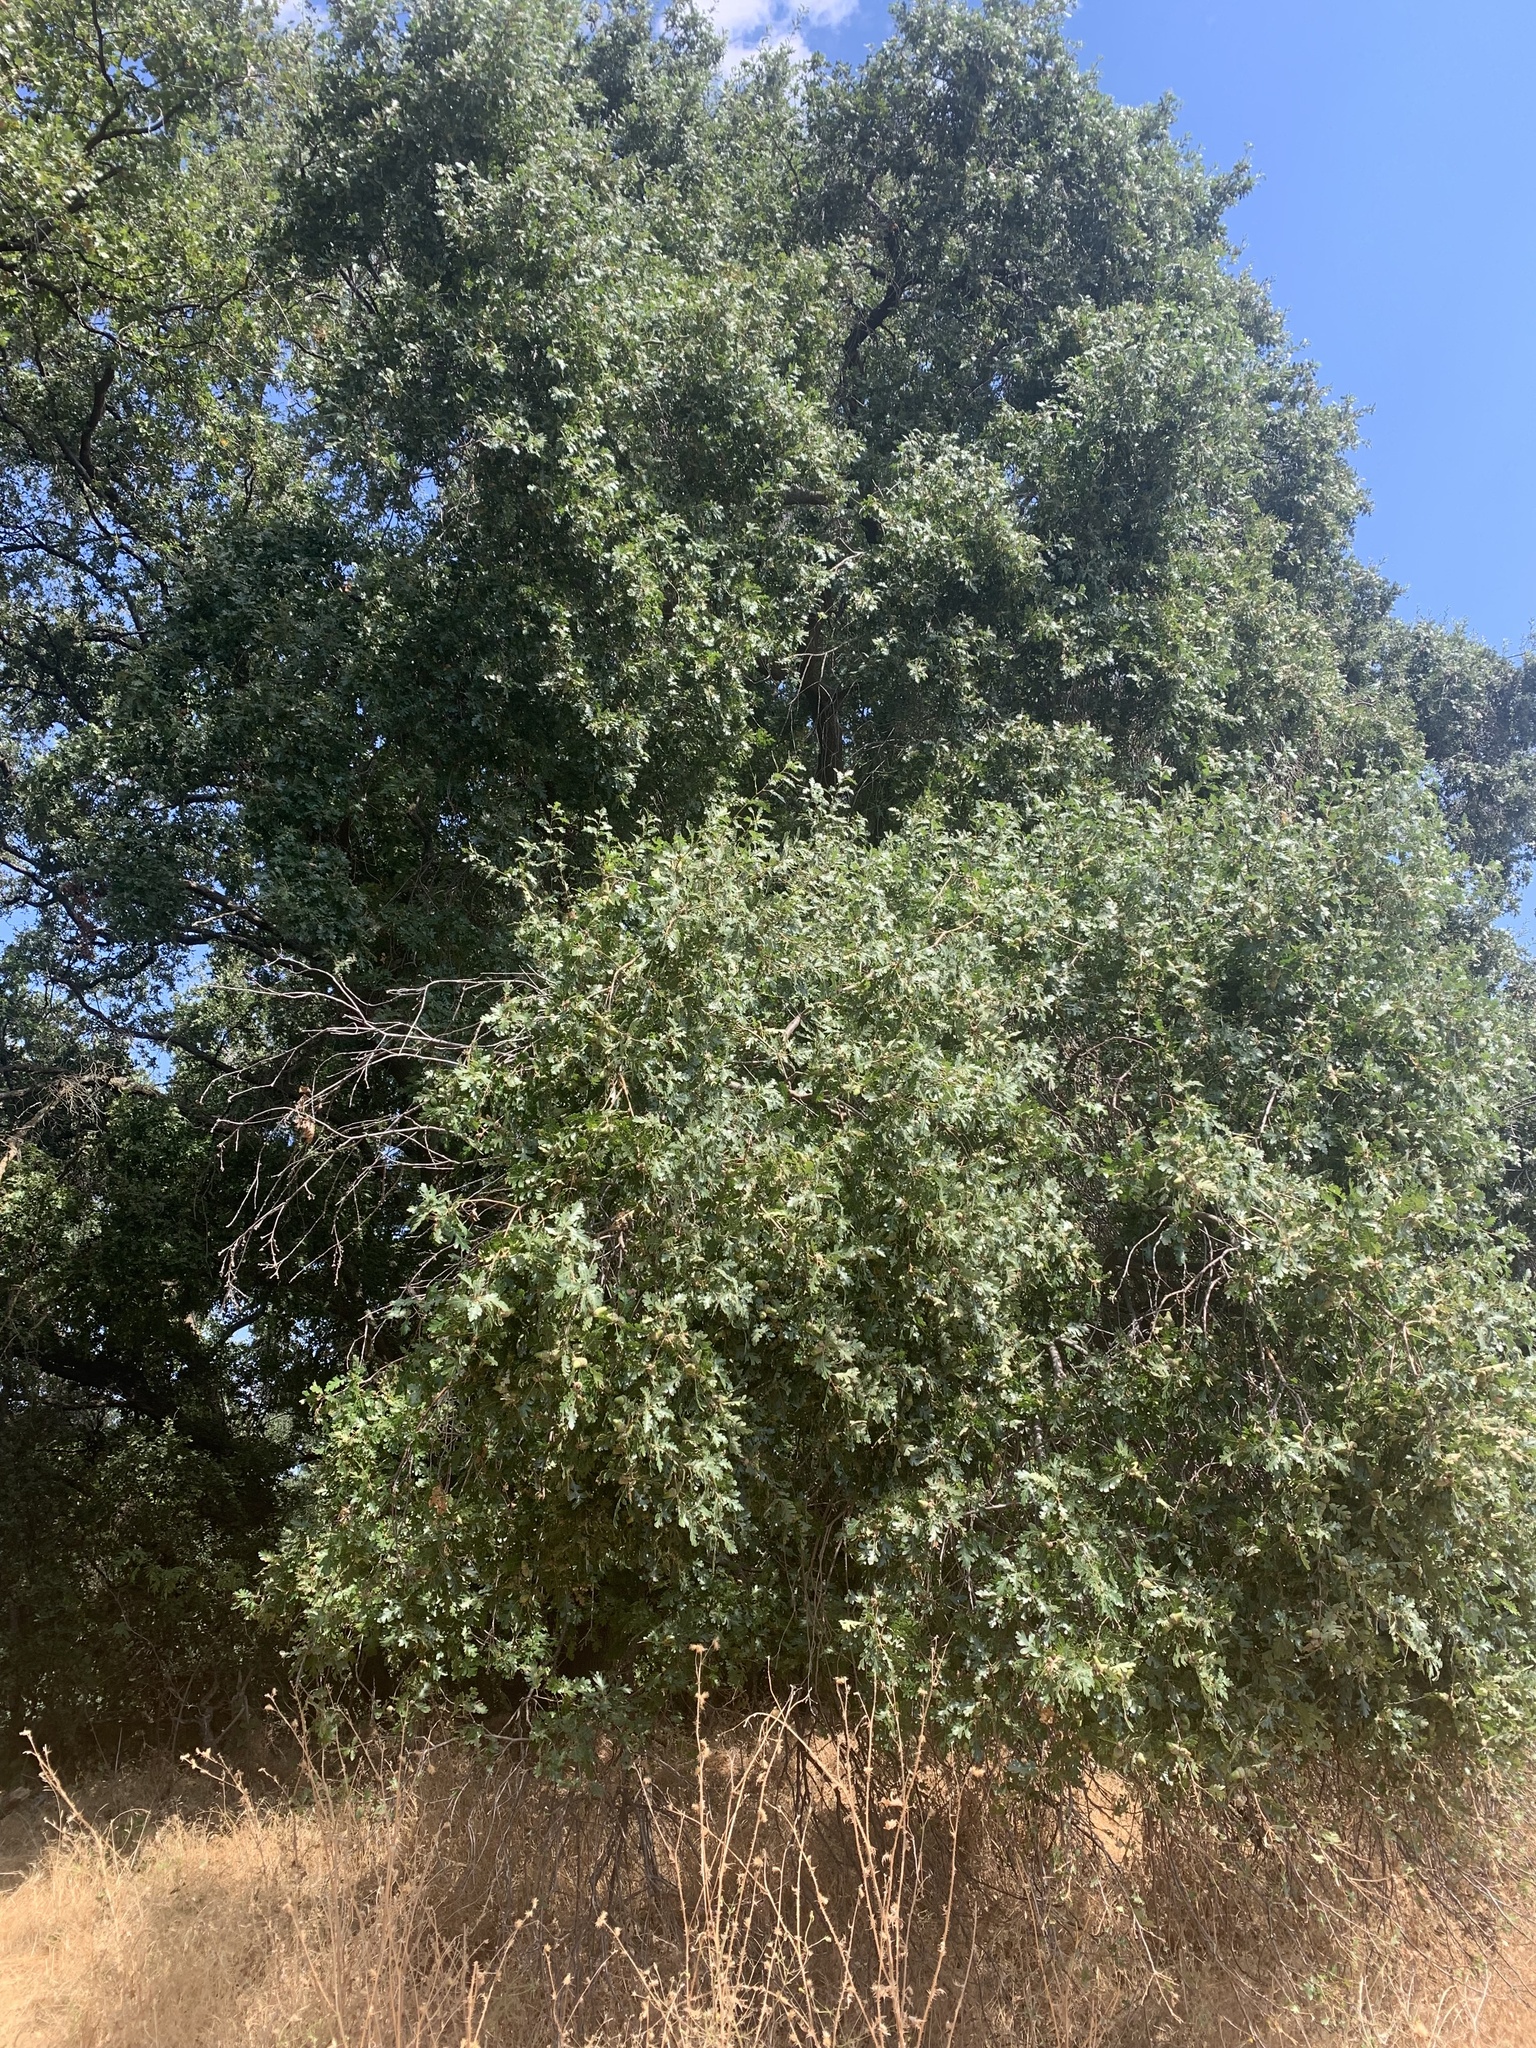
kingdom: Plantae
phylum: Tracheophyta
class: Magnoliopsida
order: Fagales
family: Fagaceae
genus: Quercus
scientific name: Quercus lobata
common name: Valley oak
